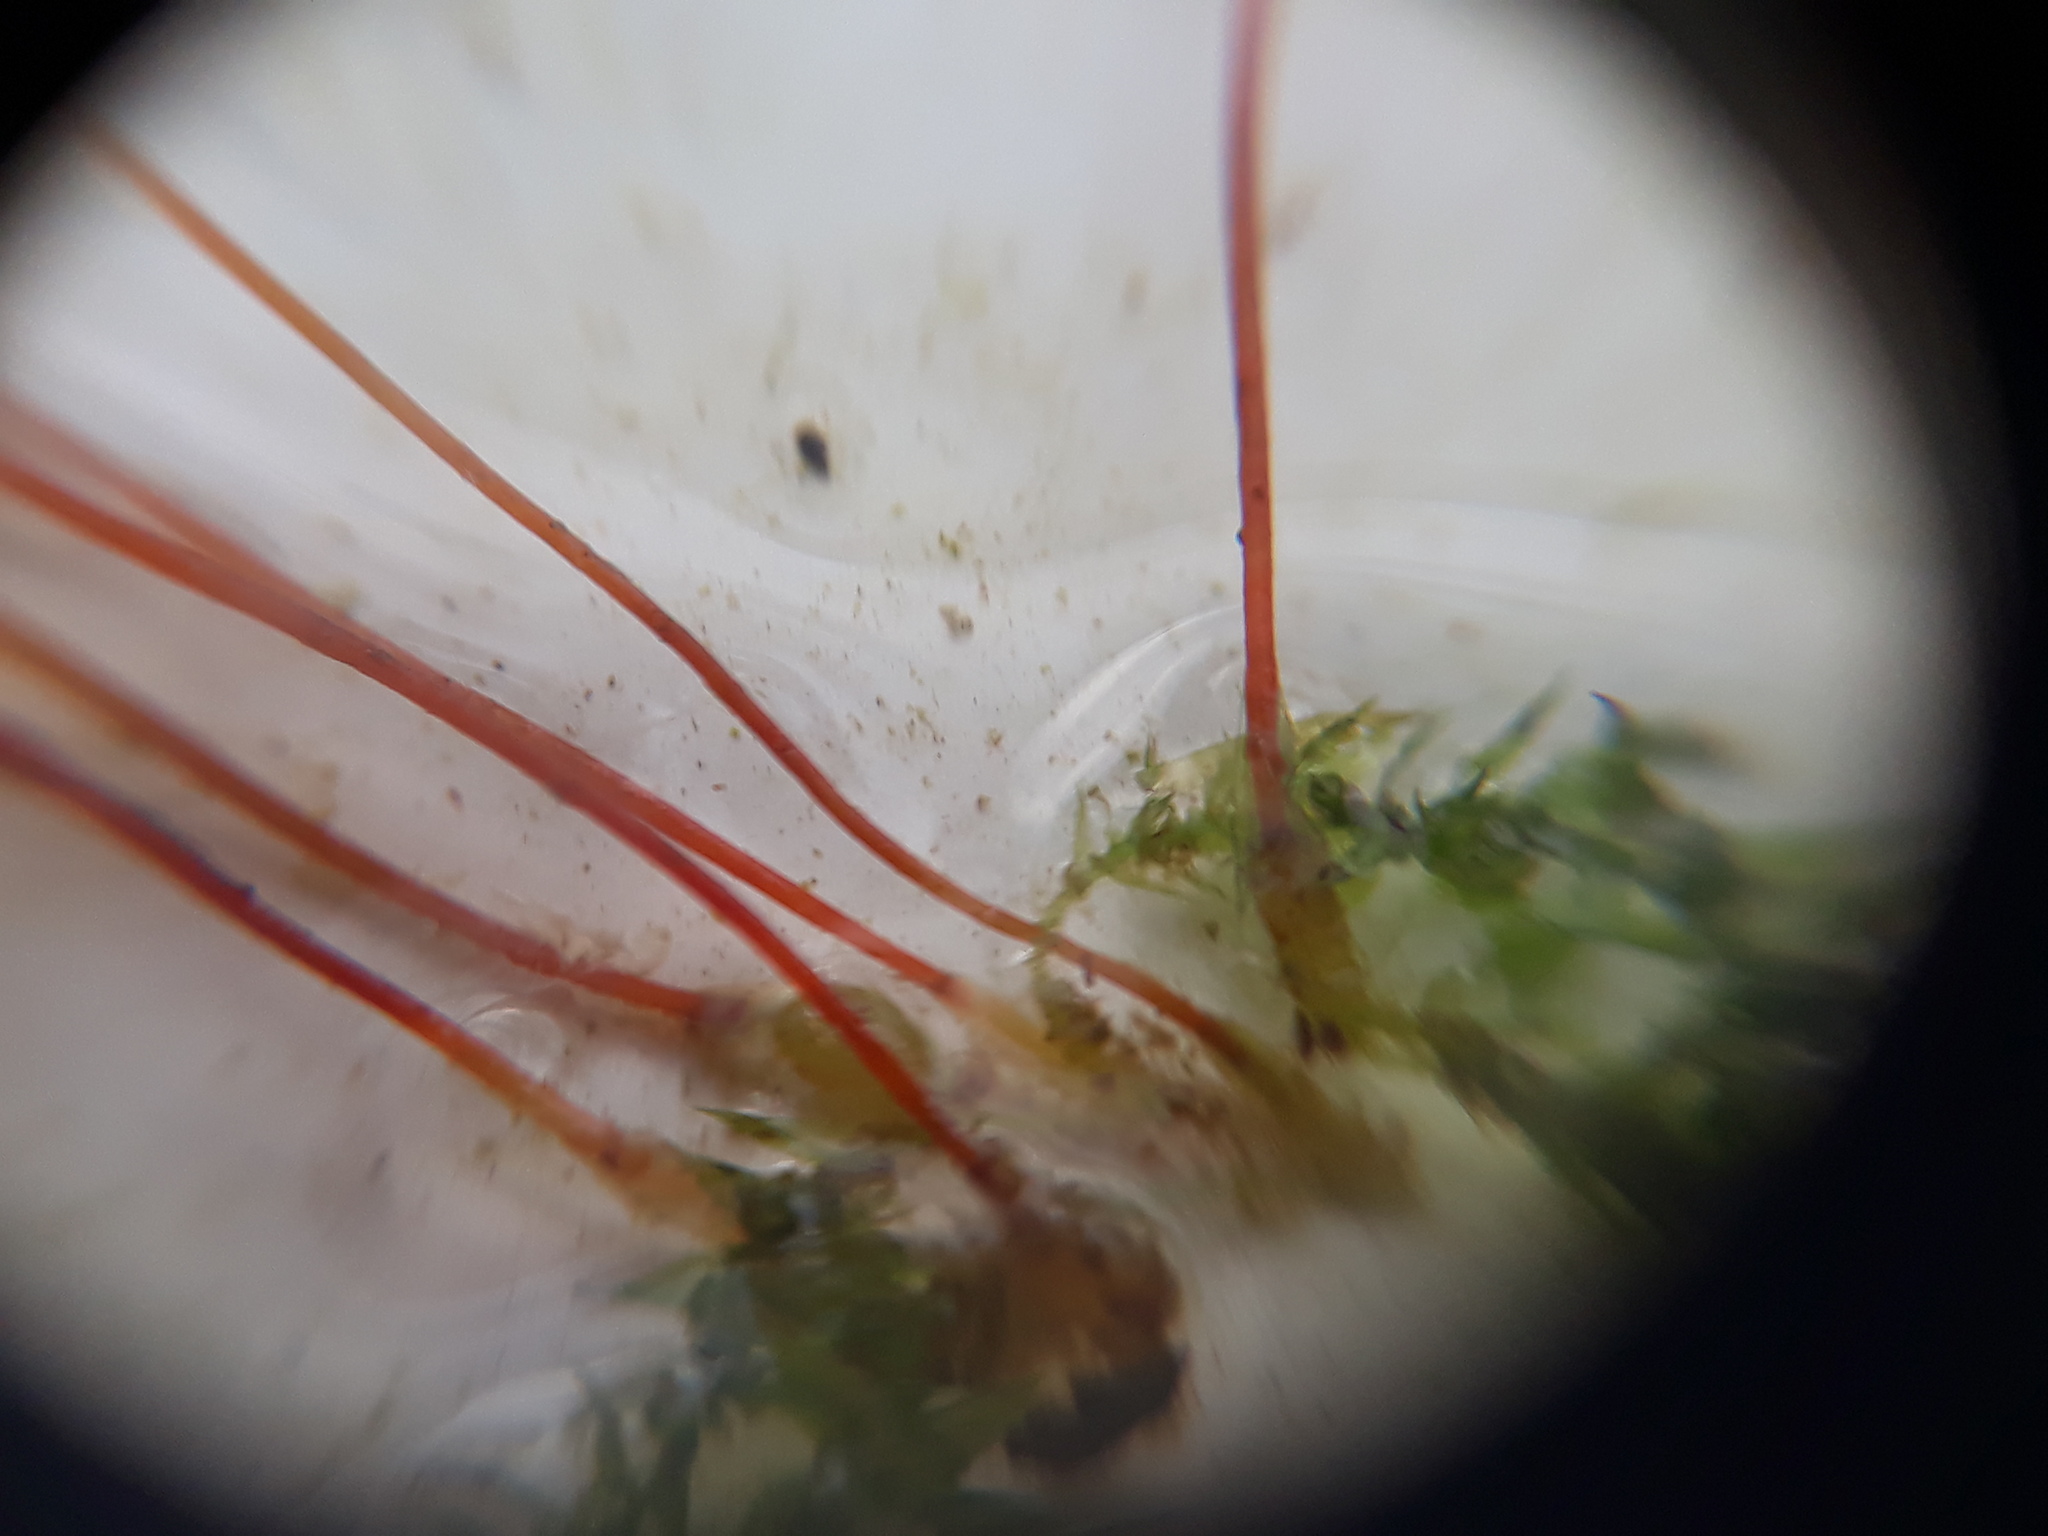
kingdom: Plantae
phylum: Bryophyta
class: Bryopsida
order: Hypnales
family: Amblystegiaceae
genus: Leptodictyum
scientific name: Leptodictyum riparium
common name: Riparian feather moss
